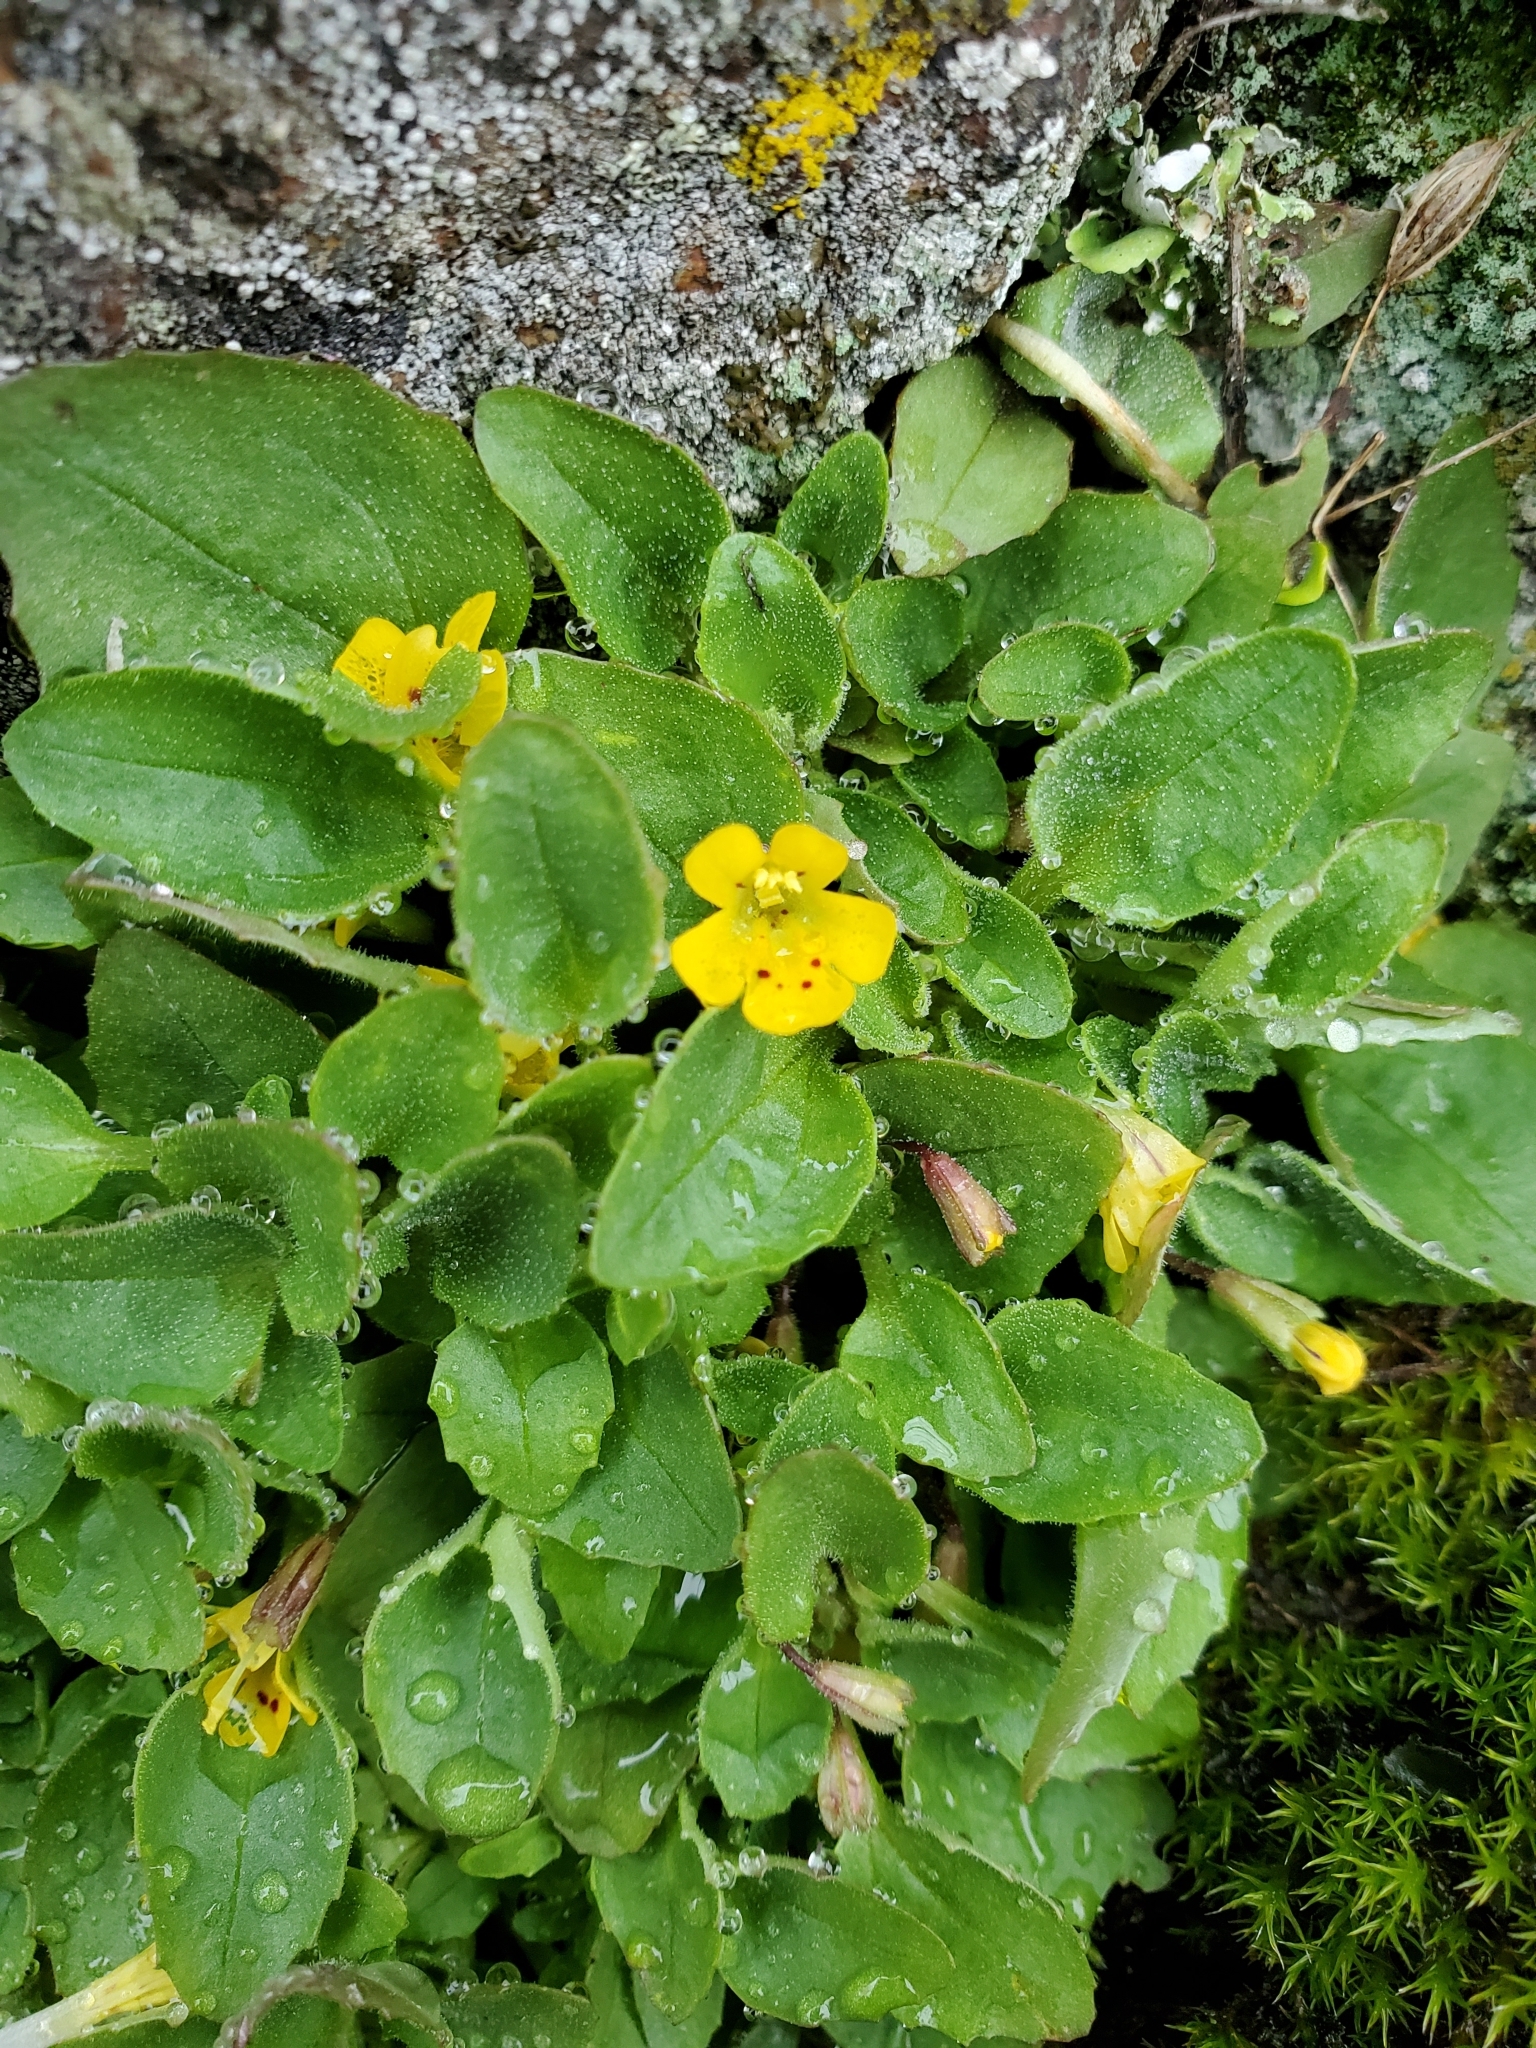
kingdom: Plantae
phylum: Tracheophyta
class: Magnoliopsida
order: Lamiales
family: Phrymaceae
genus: Erythranthe
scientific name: Erythranthe alsinoides
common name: Chickweed monkeyflower
